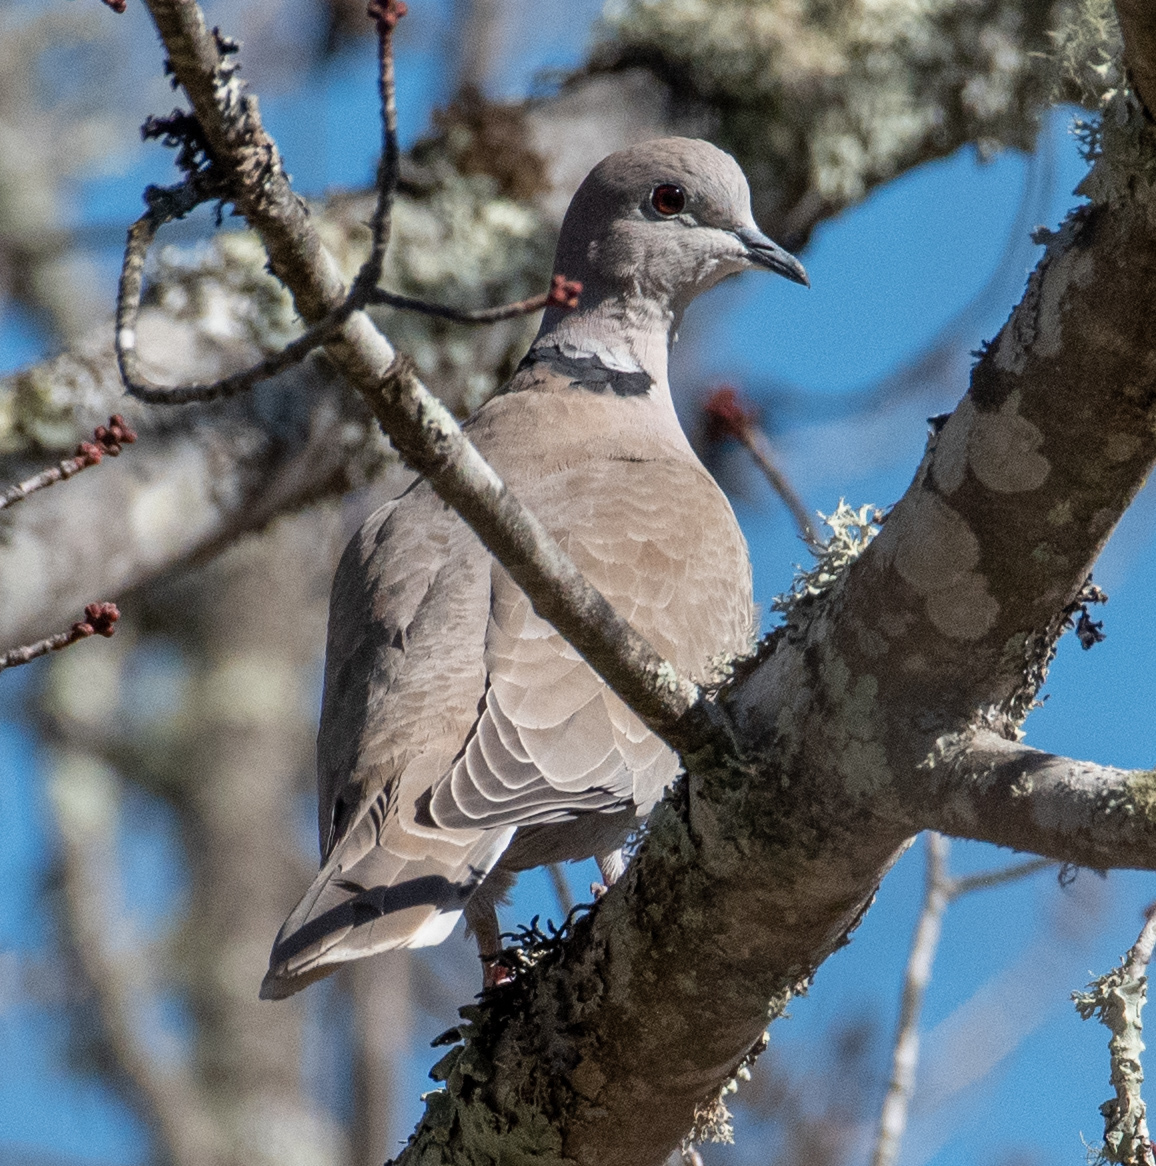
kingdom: Animalia
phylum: Chordata
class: Aves
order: Columbiformes
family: Columbidae
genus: Streptopelia
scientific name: Streptopelia decaocto
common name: Eurasian collared dove
